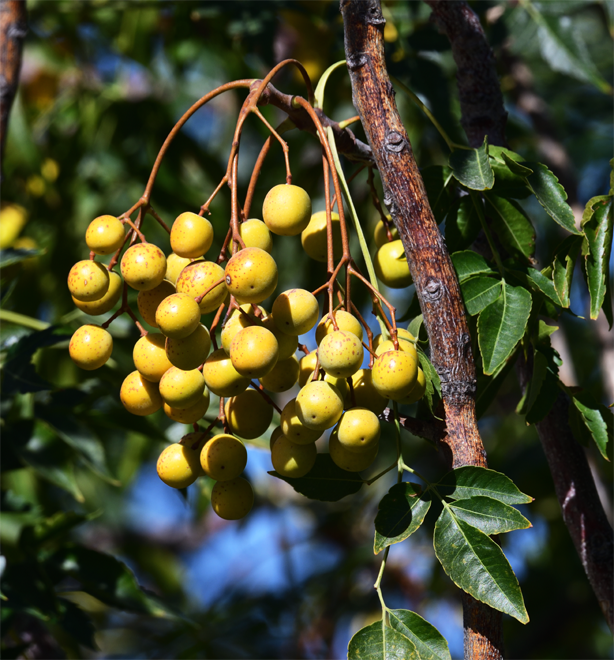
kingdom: Plantae
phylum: Tracheophyta
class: Magnoliopsida
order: Sapindales
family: Meliaceae
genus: Melia
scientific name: Melia azedarach
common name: Chinaberrytree
